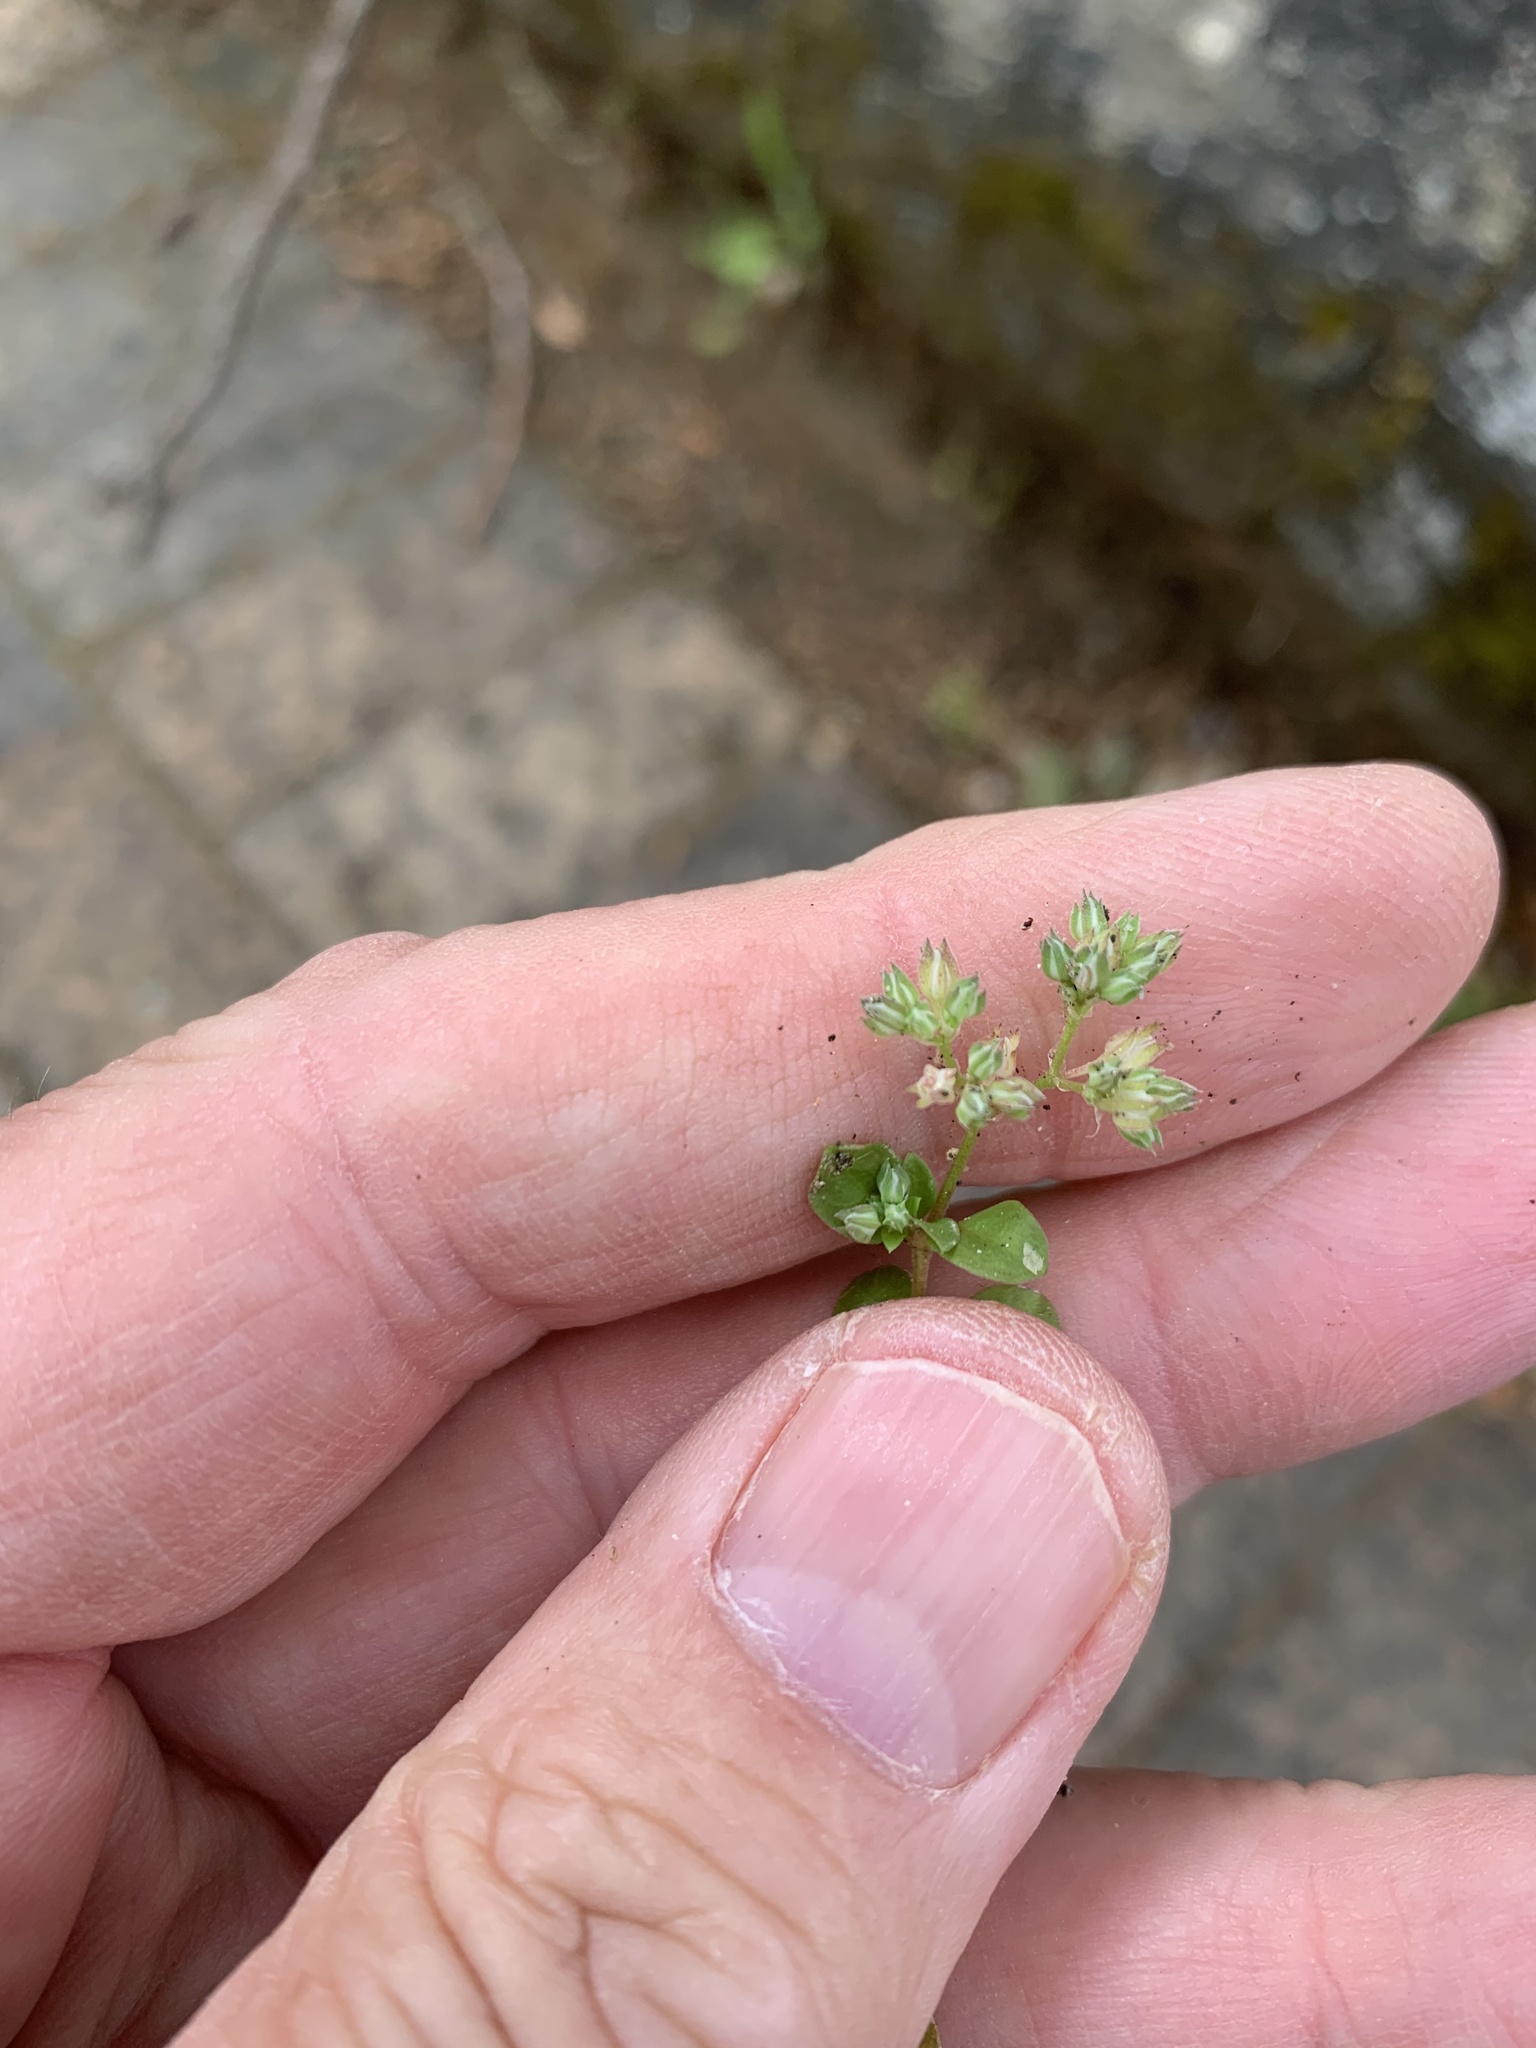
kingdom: Plantae
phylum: Tracheophyta
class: Magnoliopsida
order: Caryophyllales
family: Caryophyllaceae
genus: Polycarpon
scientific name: Polycarpon tetraphyllum
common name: Four-leaved all-seed
